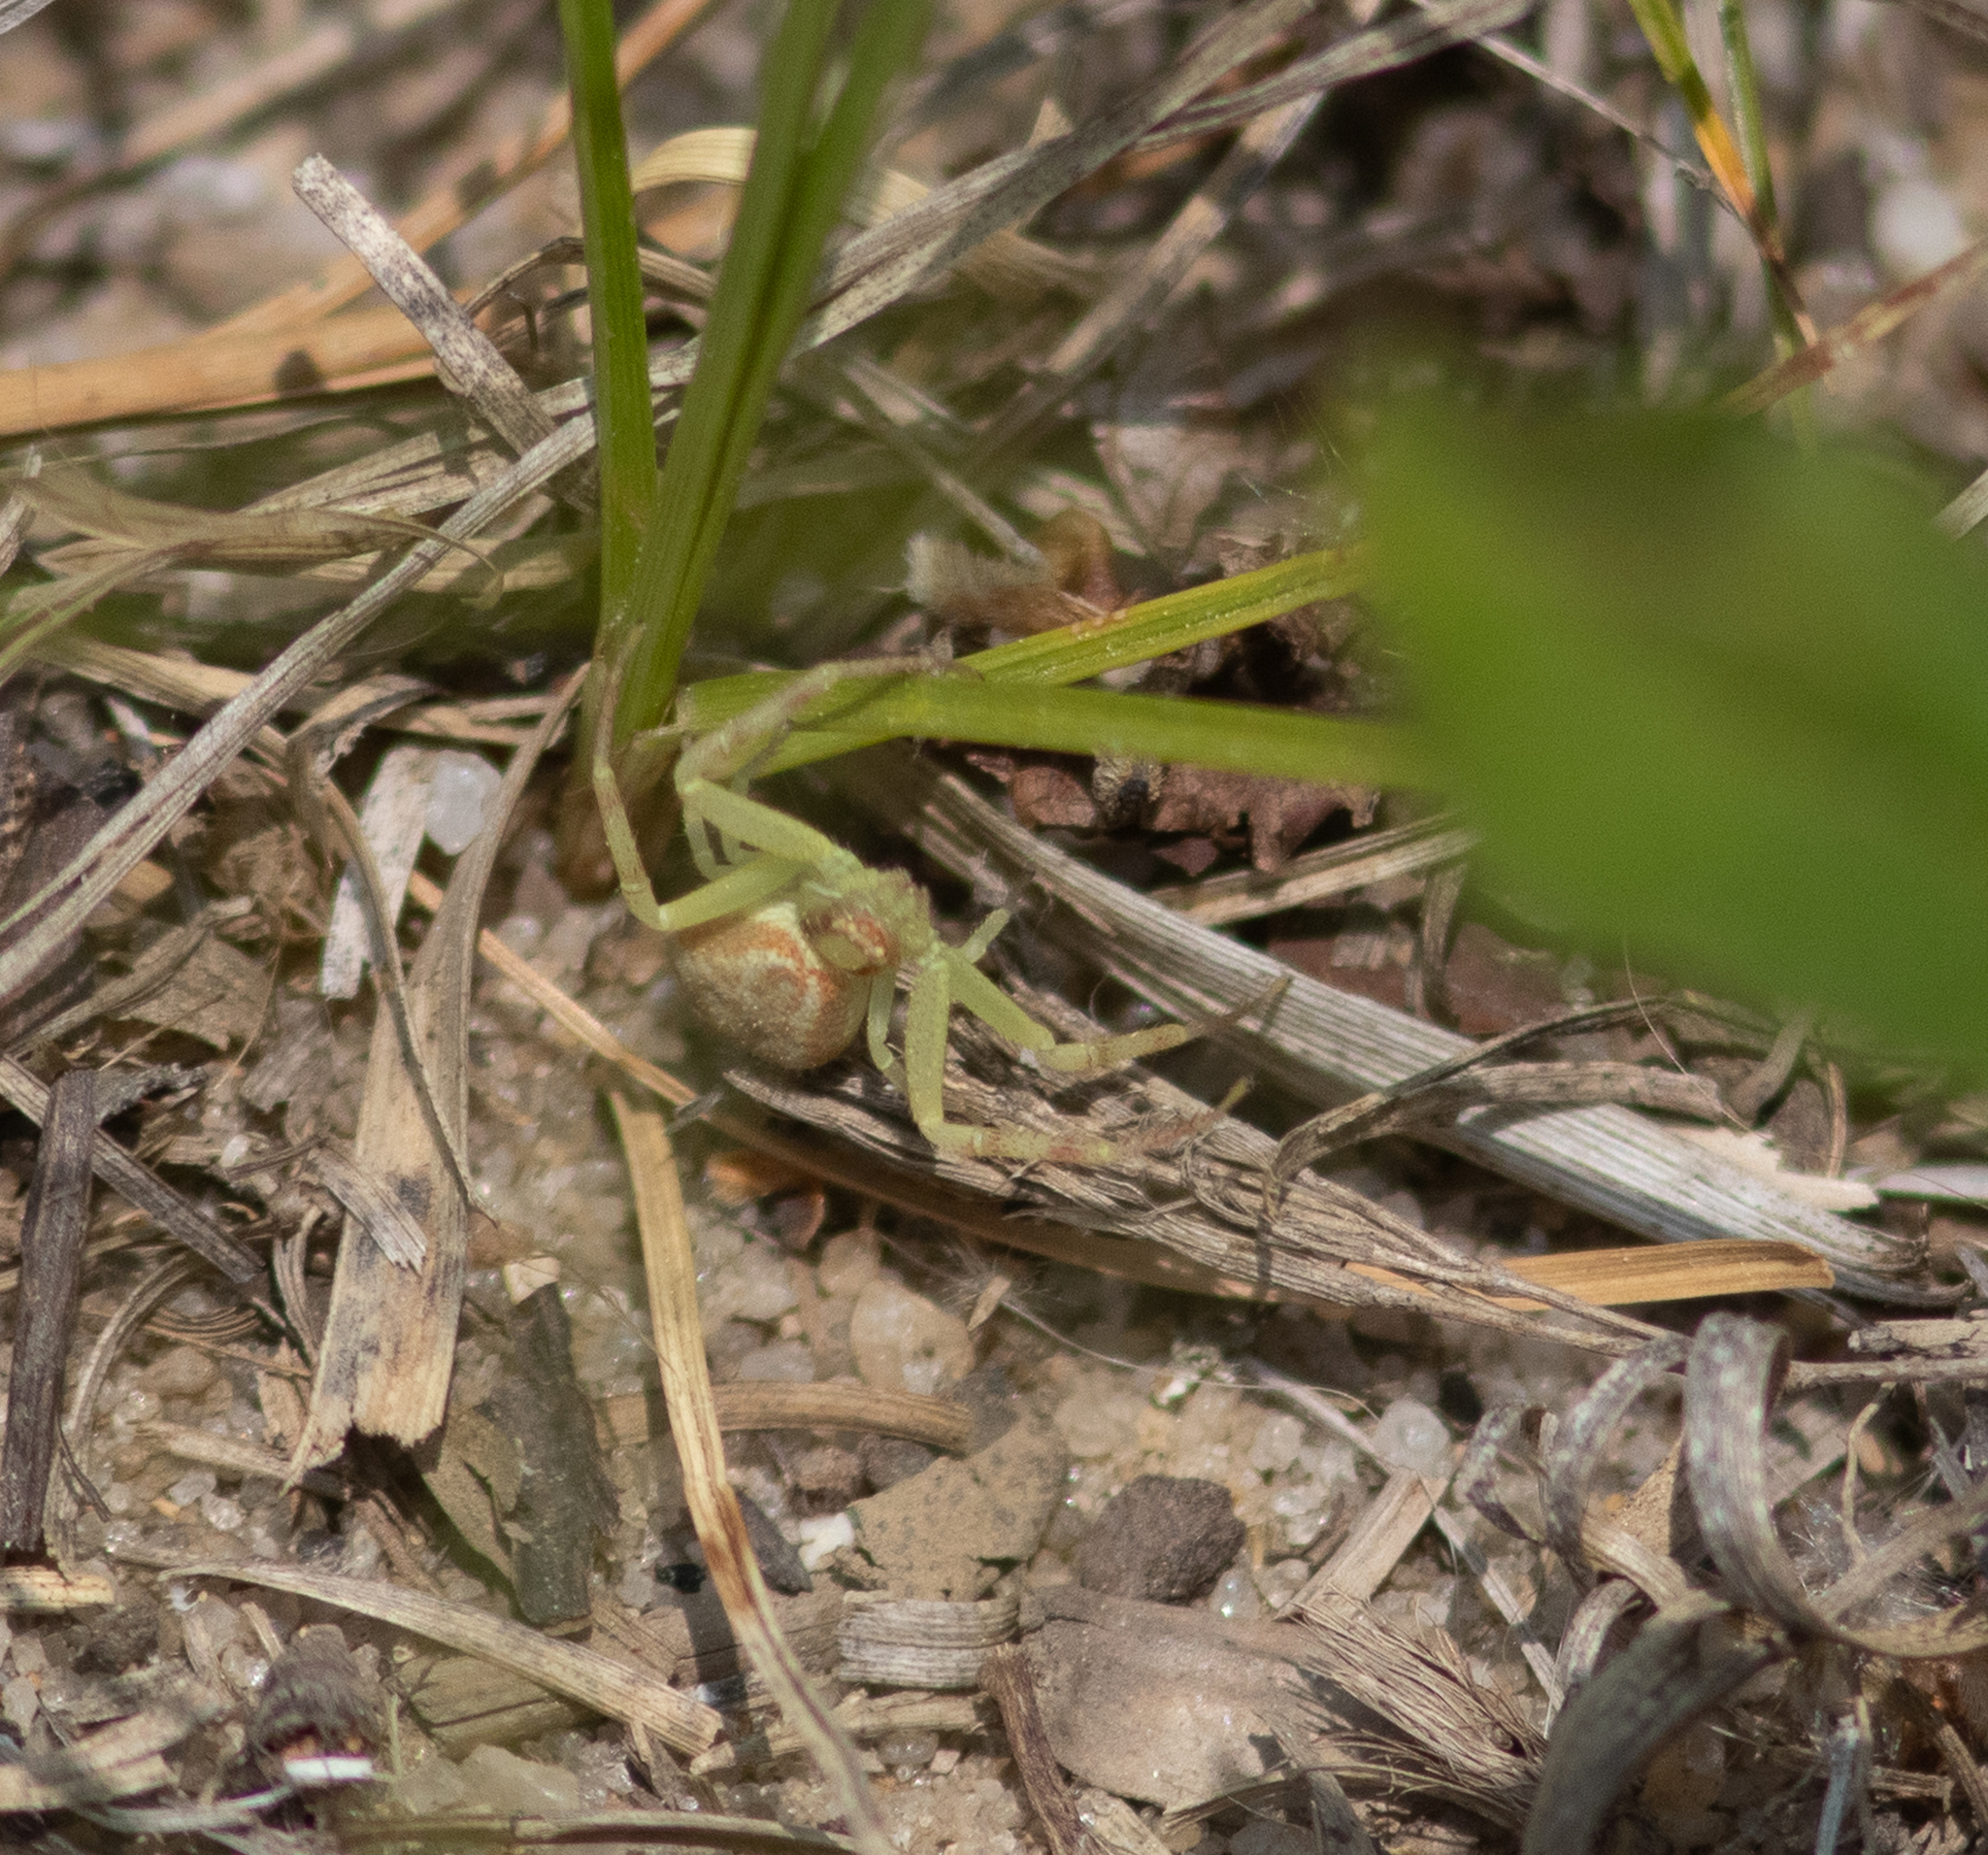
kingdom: Animalia
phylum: Arthropoda
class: Arachnida
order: Araneae
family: Thomisidae
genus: Mecaphesa
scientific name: Mecaphesa asperata
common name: Crab spiders
